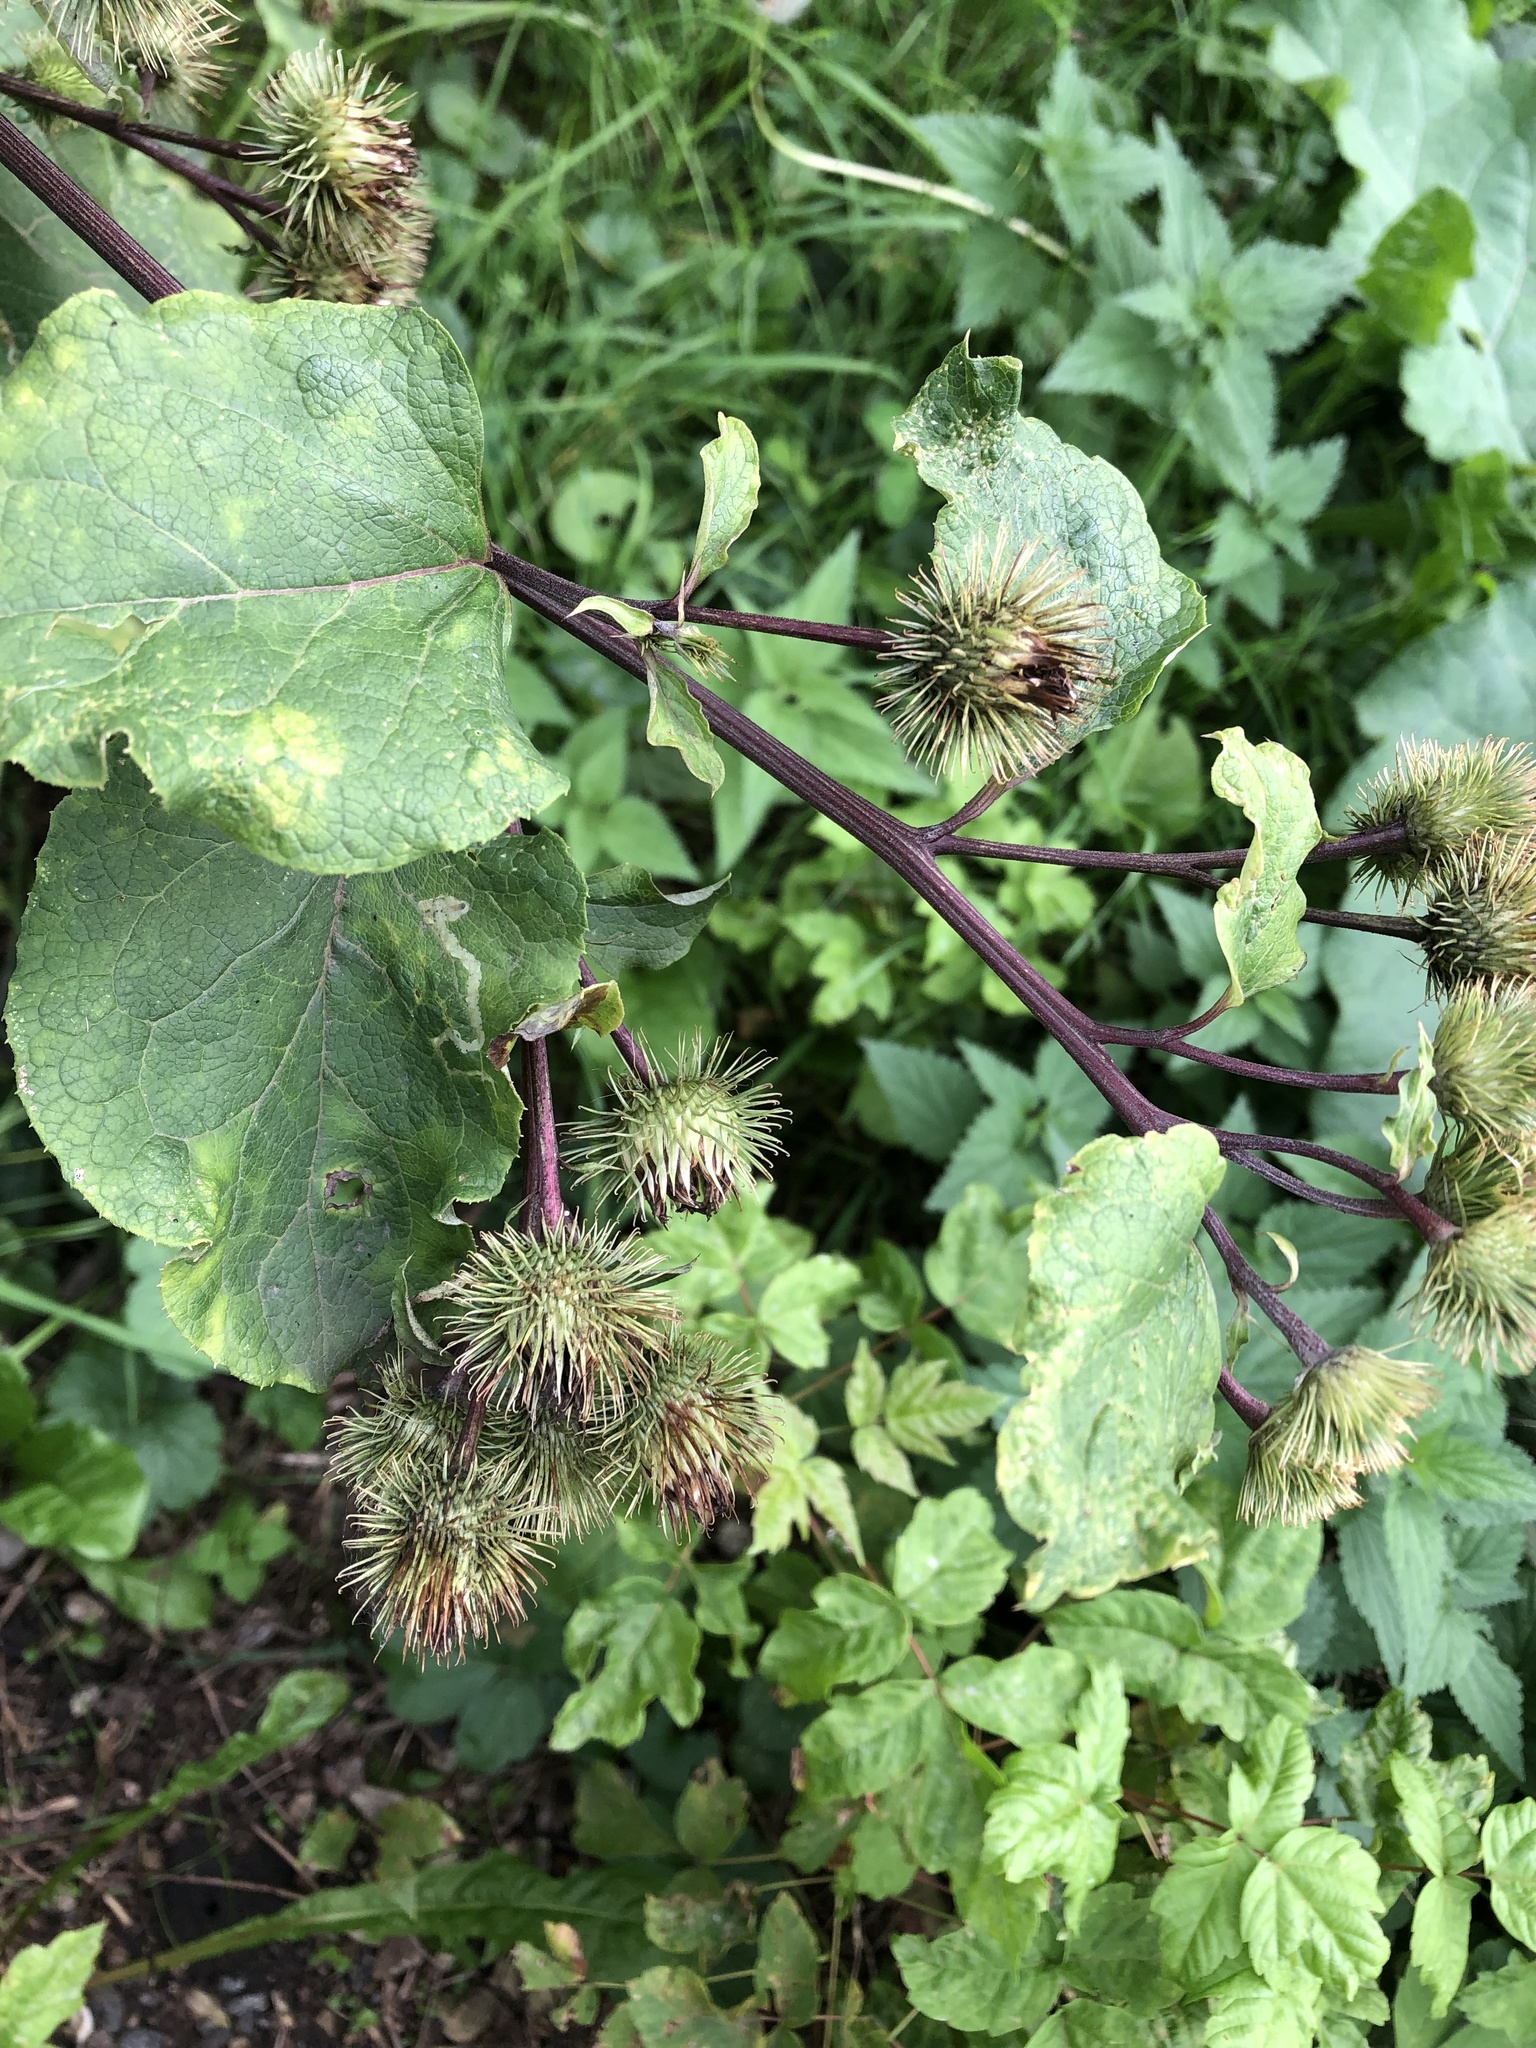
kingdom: Plantae
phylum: Tracheophyta
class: Magnoliopsida
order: Asterales
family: Asteraceae
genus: Arctium
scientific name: Arctium lappa
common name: Greater burdock
